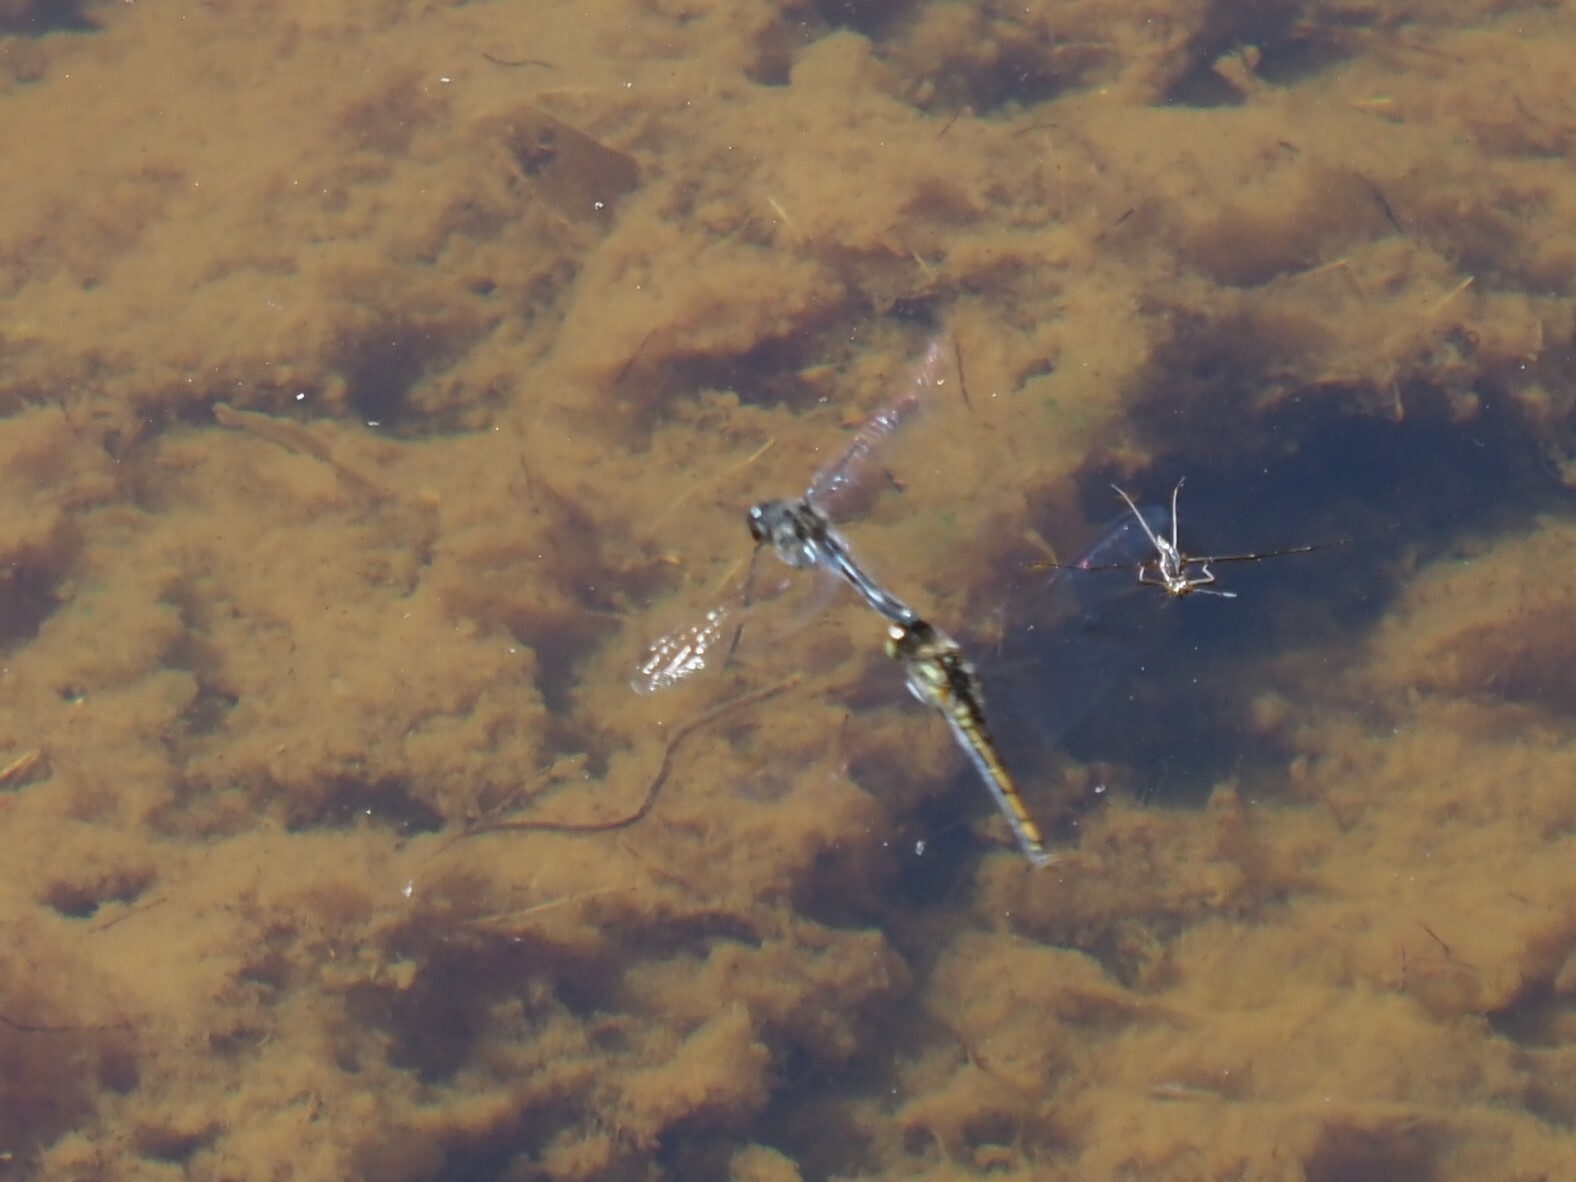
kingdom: Animalia
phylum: Arthropoda
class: Insecta
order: Odonata
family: Libellulidae
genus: Sympetrum
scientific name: Sympetrum danae
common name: Black darter
